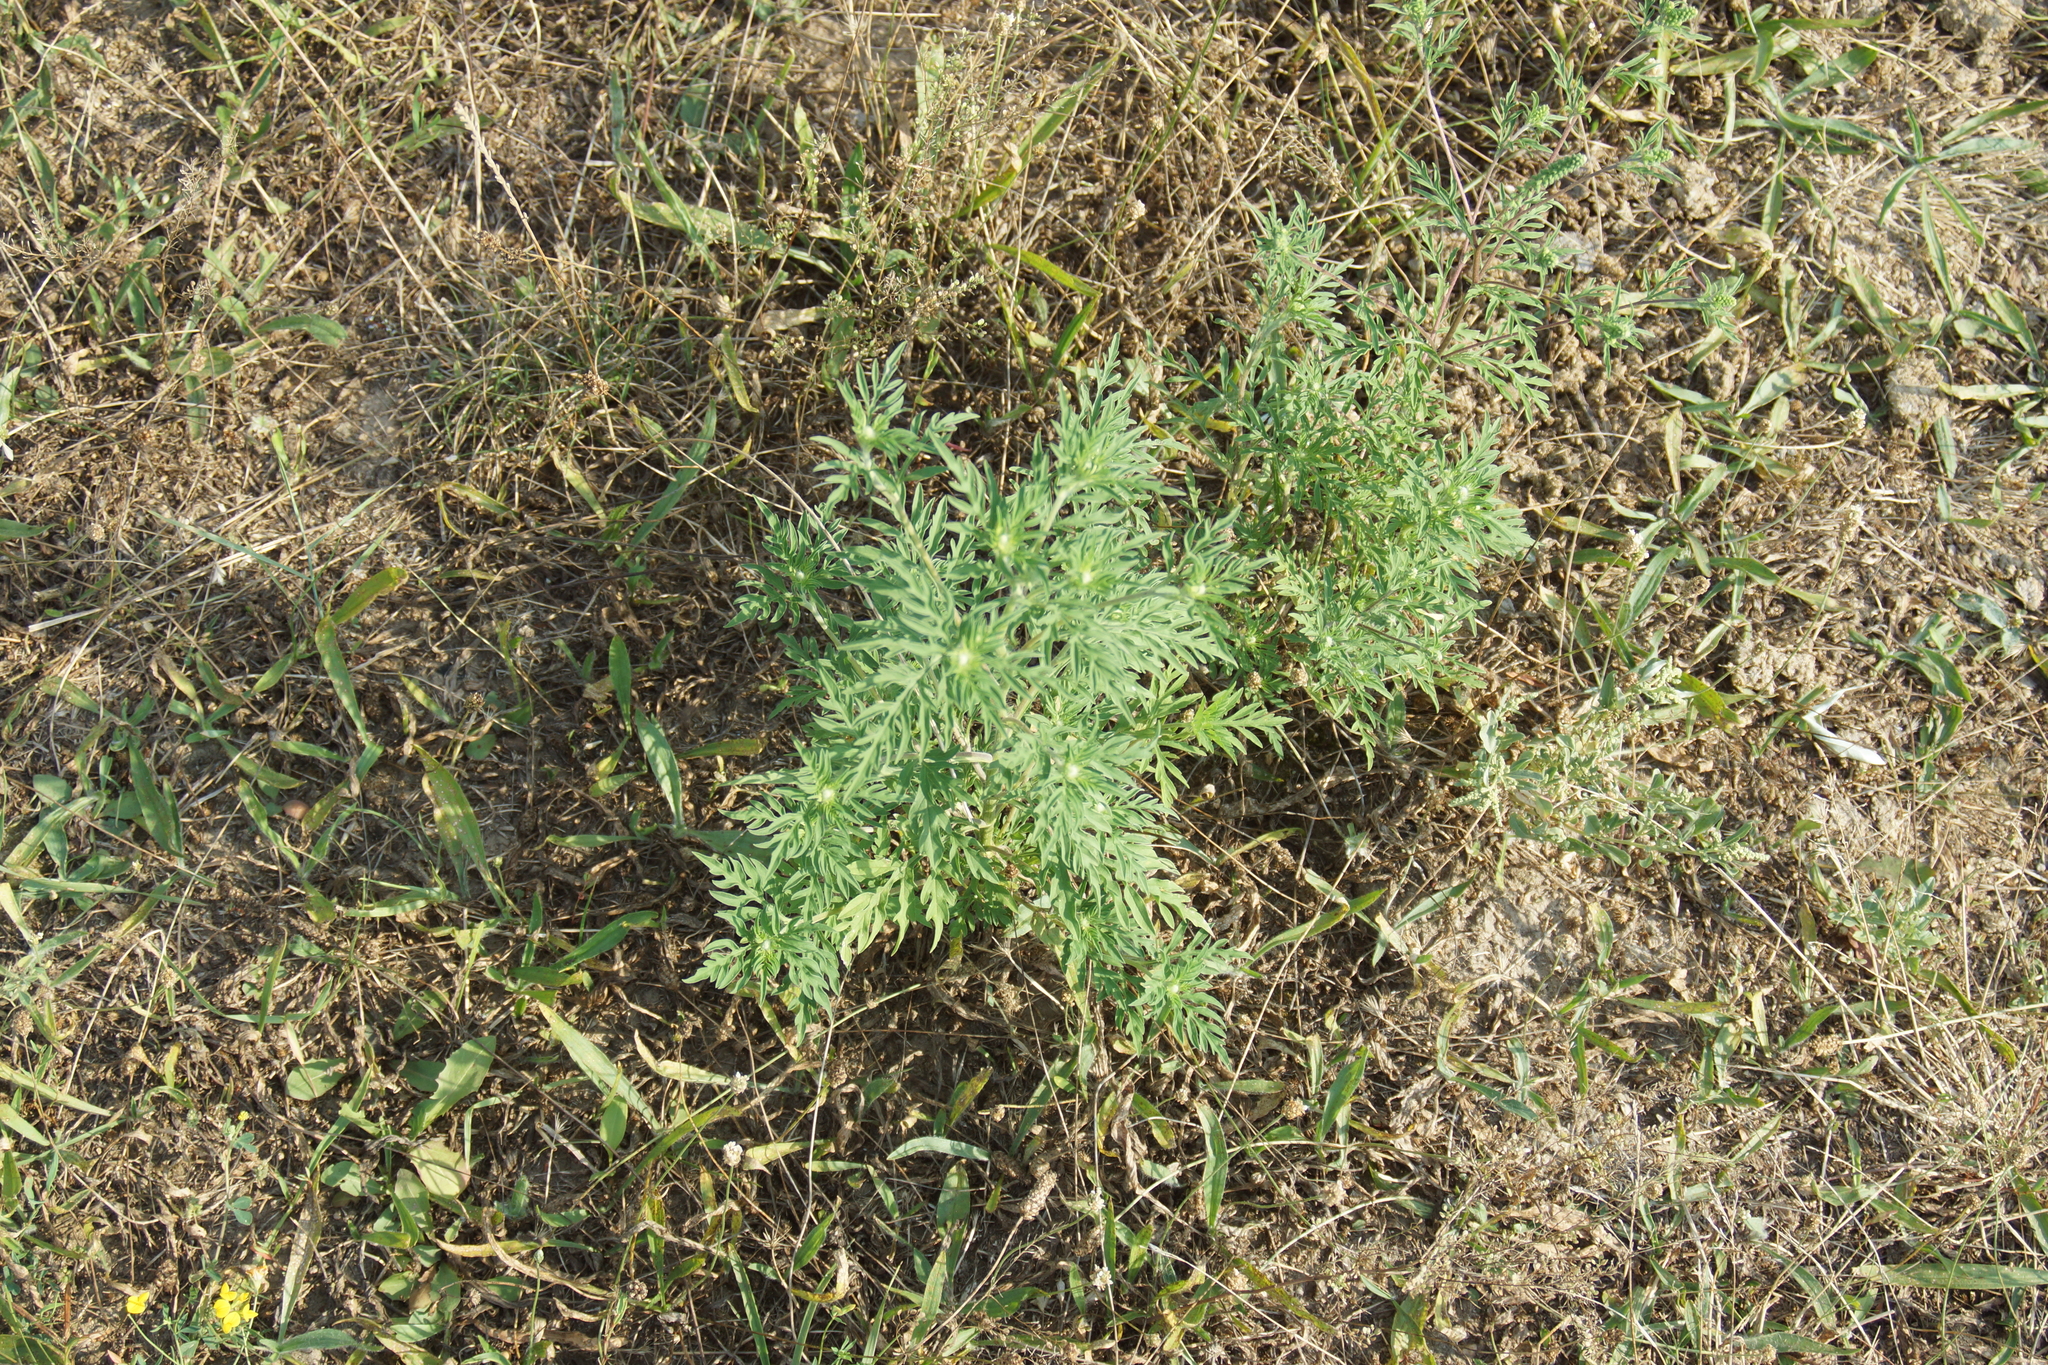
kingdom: Plantae
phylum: Tracheophyta
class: Magnoliopsida
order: Asterales
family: Asteraceae
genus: Ambrosia
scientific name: Ambrosia artemisiifolia
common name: Annual ragweed
